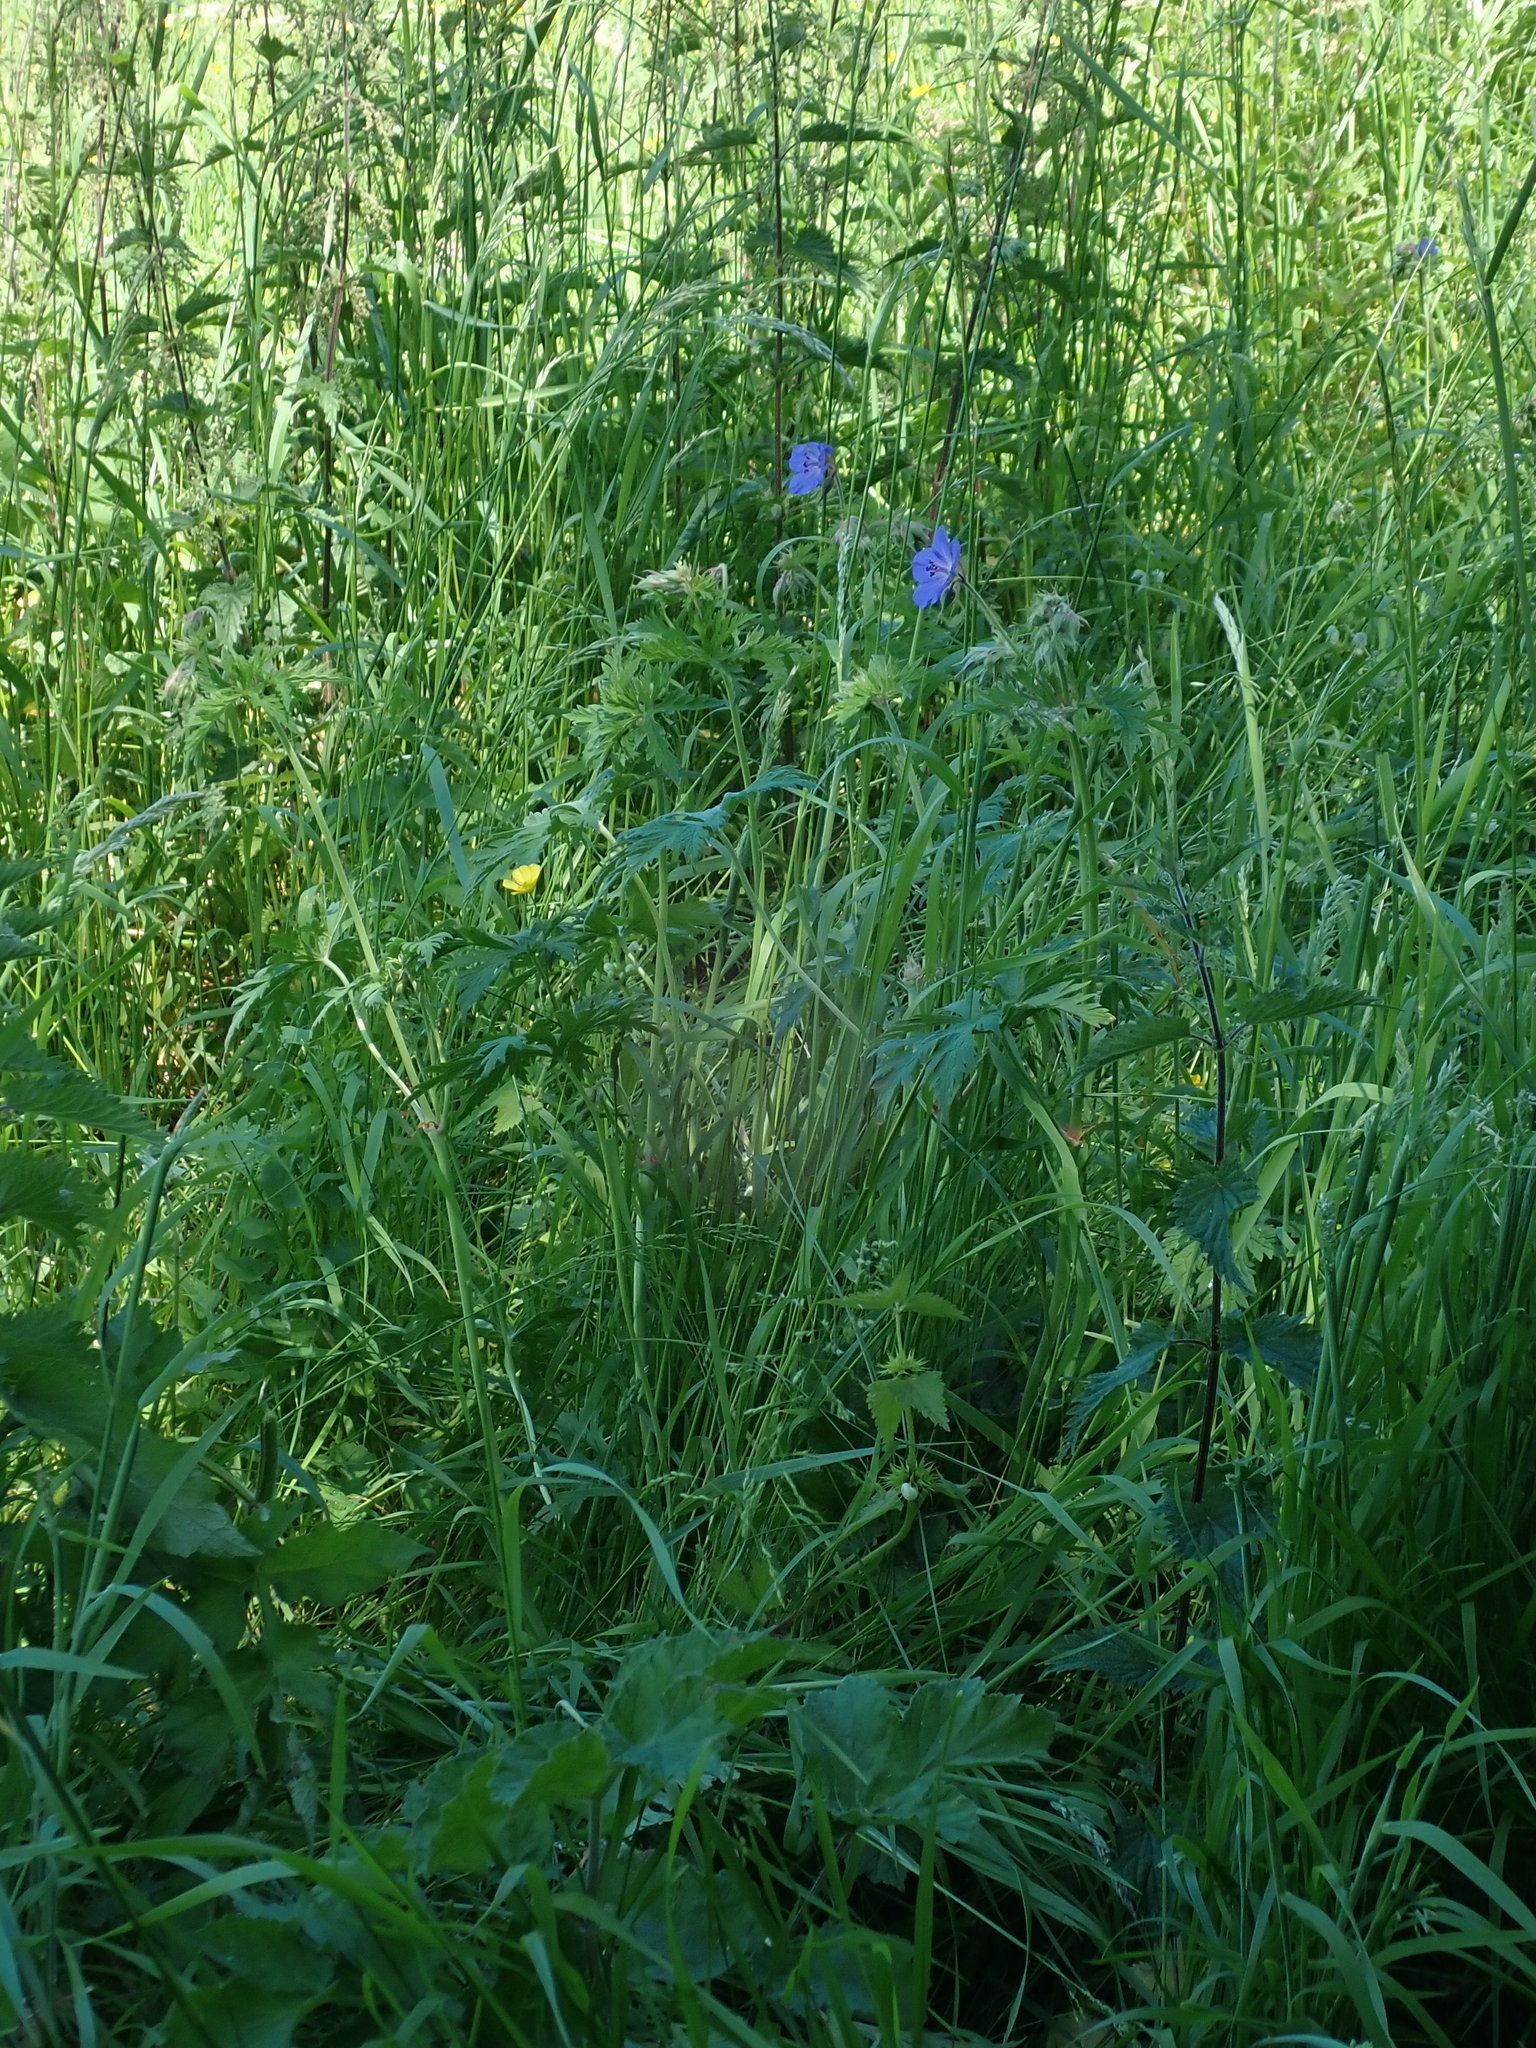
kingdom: Plantae
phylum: Tracheophyta
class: Magnoliopsida
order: Geraniales
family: Geraniaceae
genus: Geranium
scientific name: Geranium pratense
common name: Meadow crane's-bill
